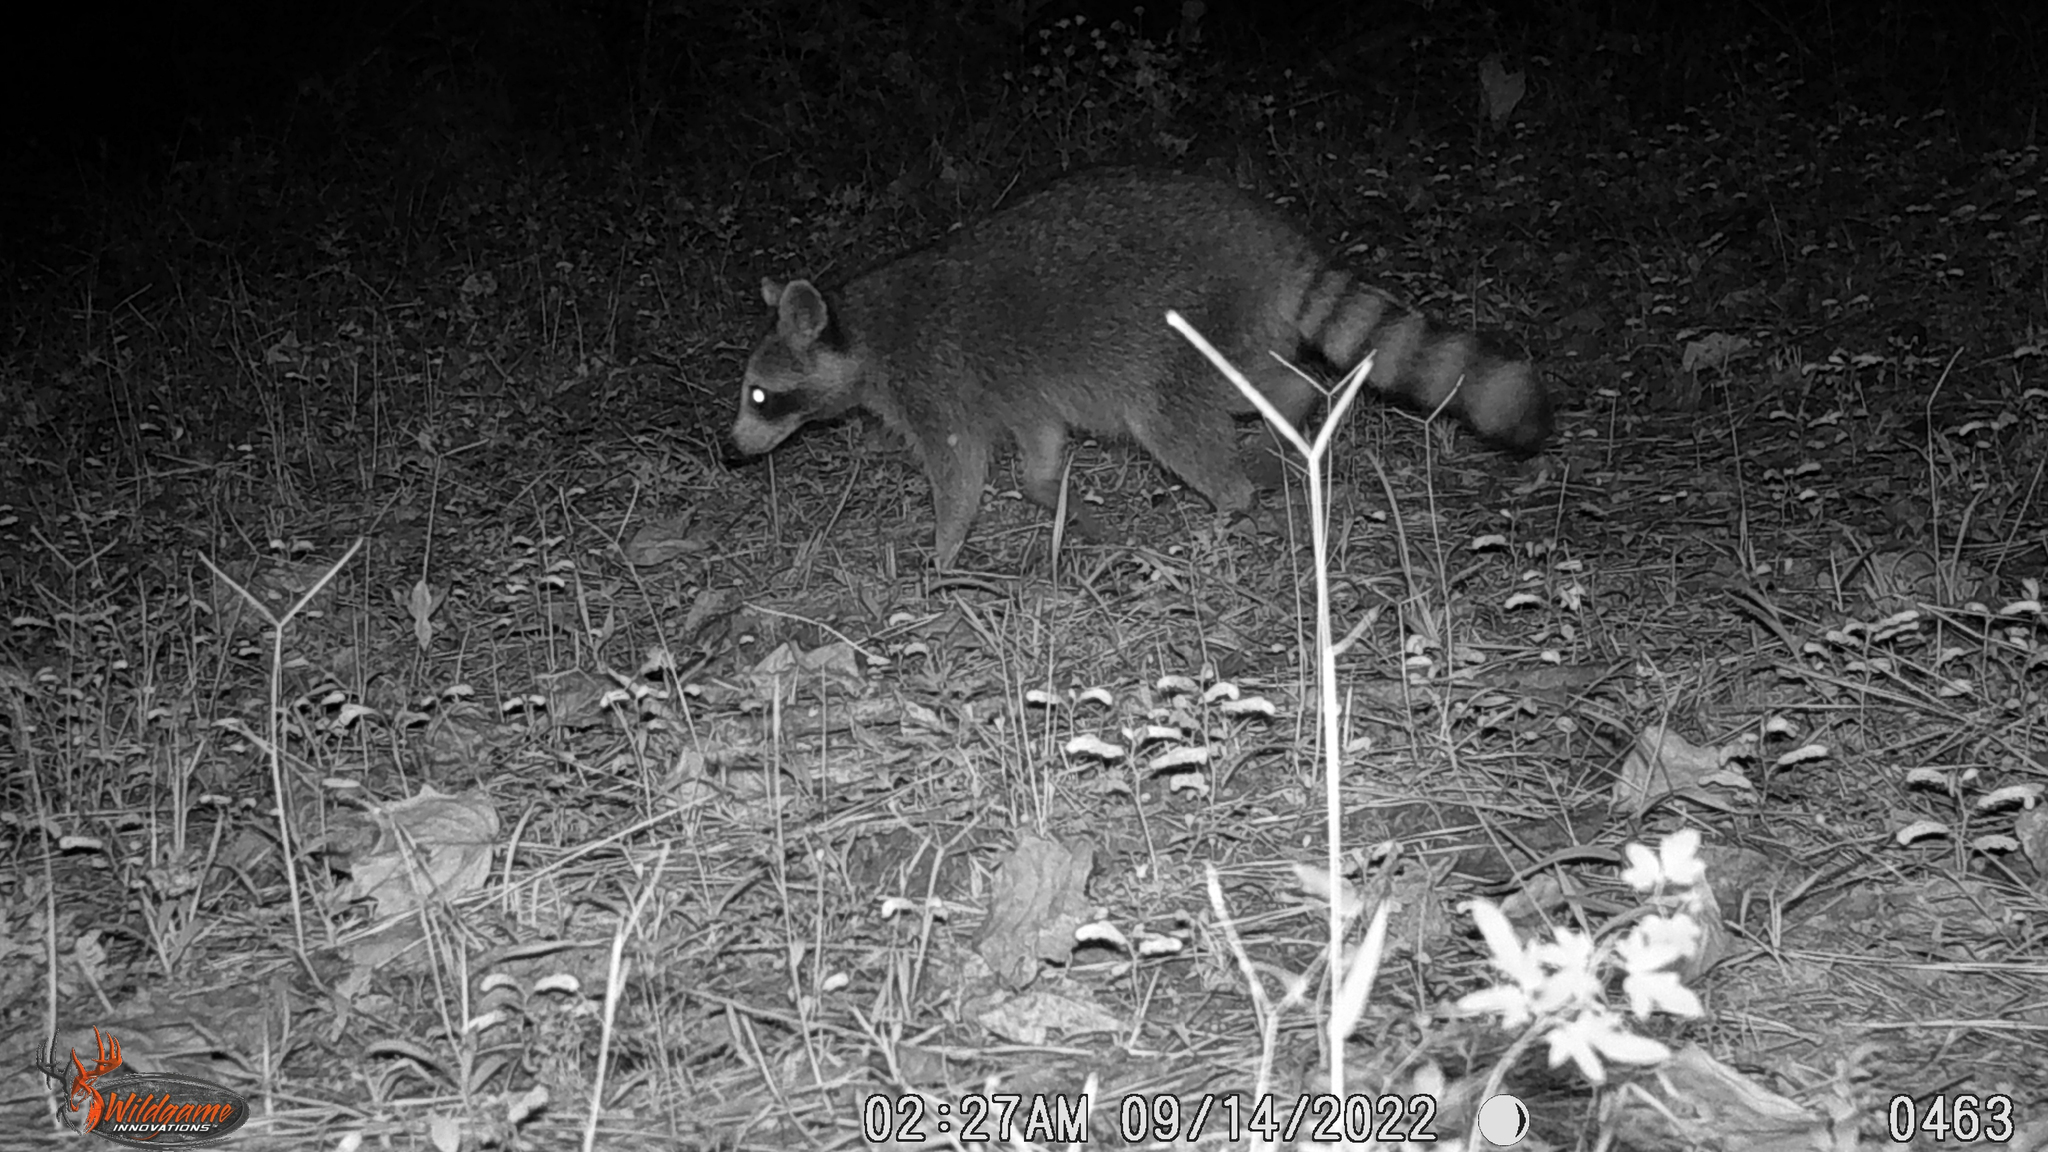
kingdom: Animalia
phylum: Chordata
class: Mammalia
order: Carnivora
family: Procyonidae
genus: Procyon
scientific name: Procyon lotor
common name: Raccoon
